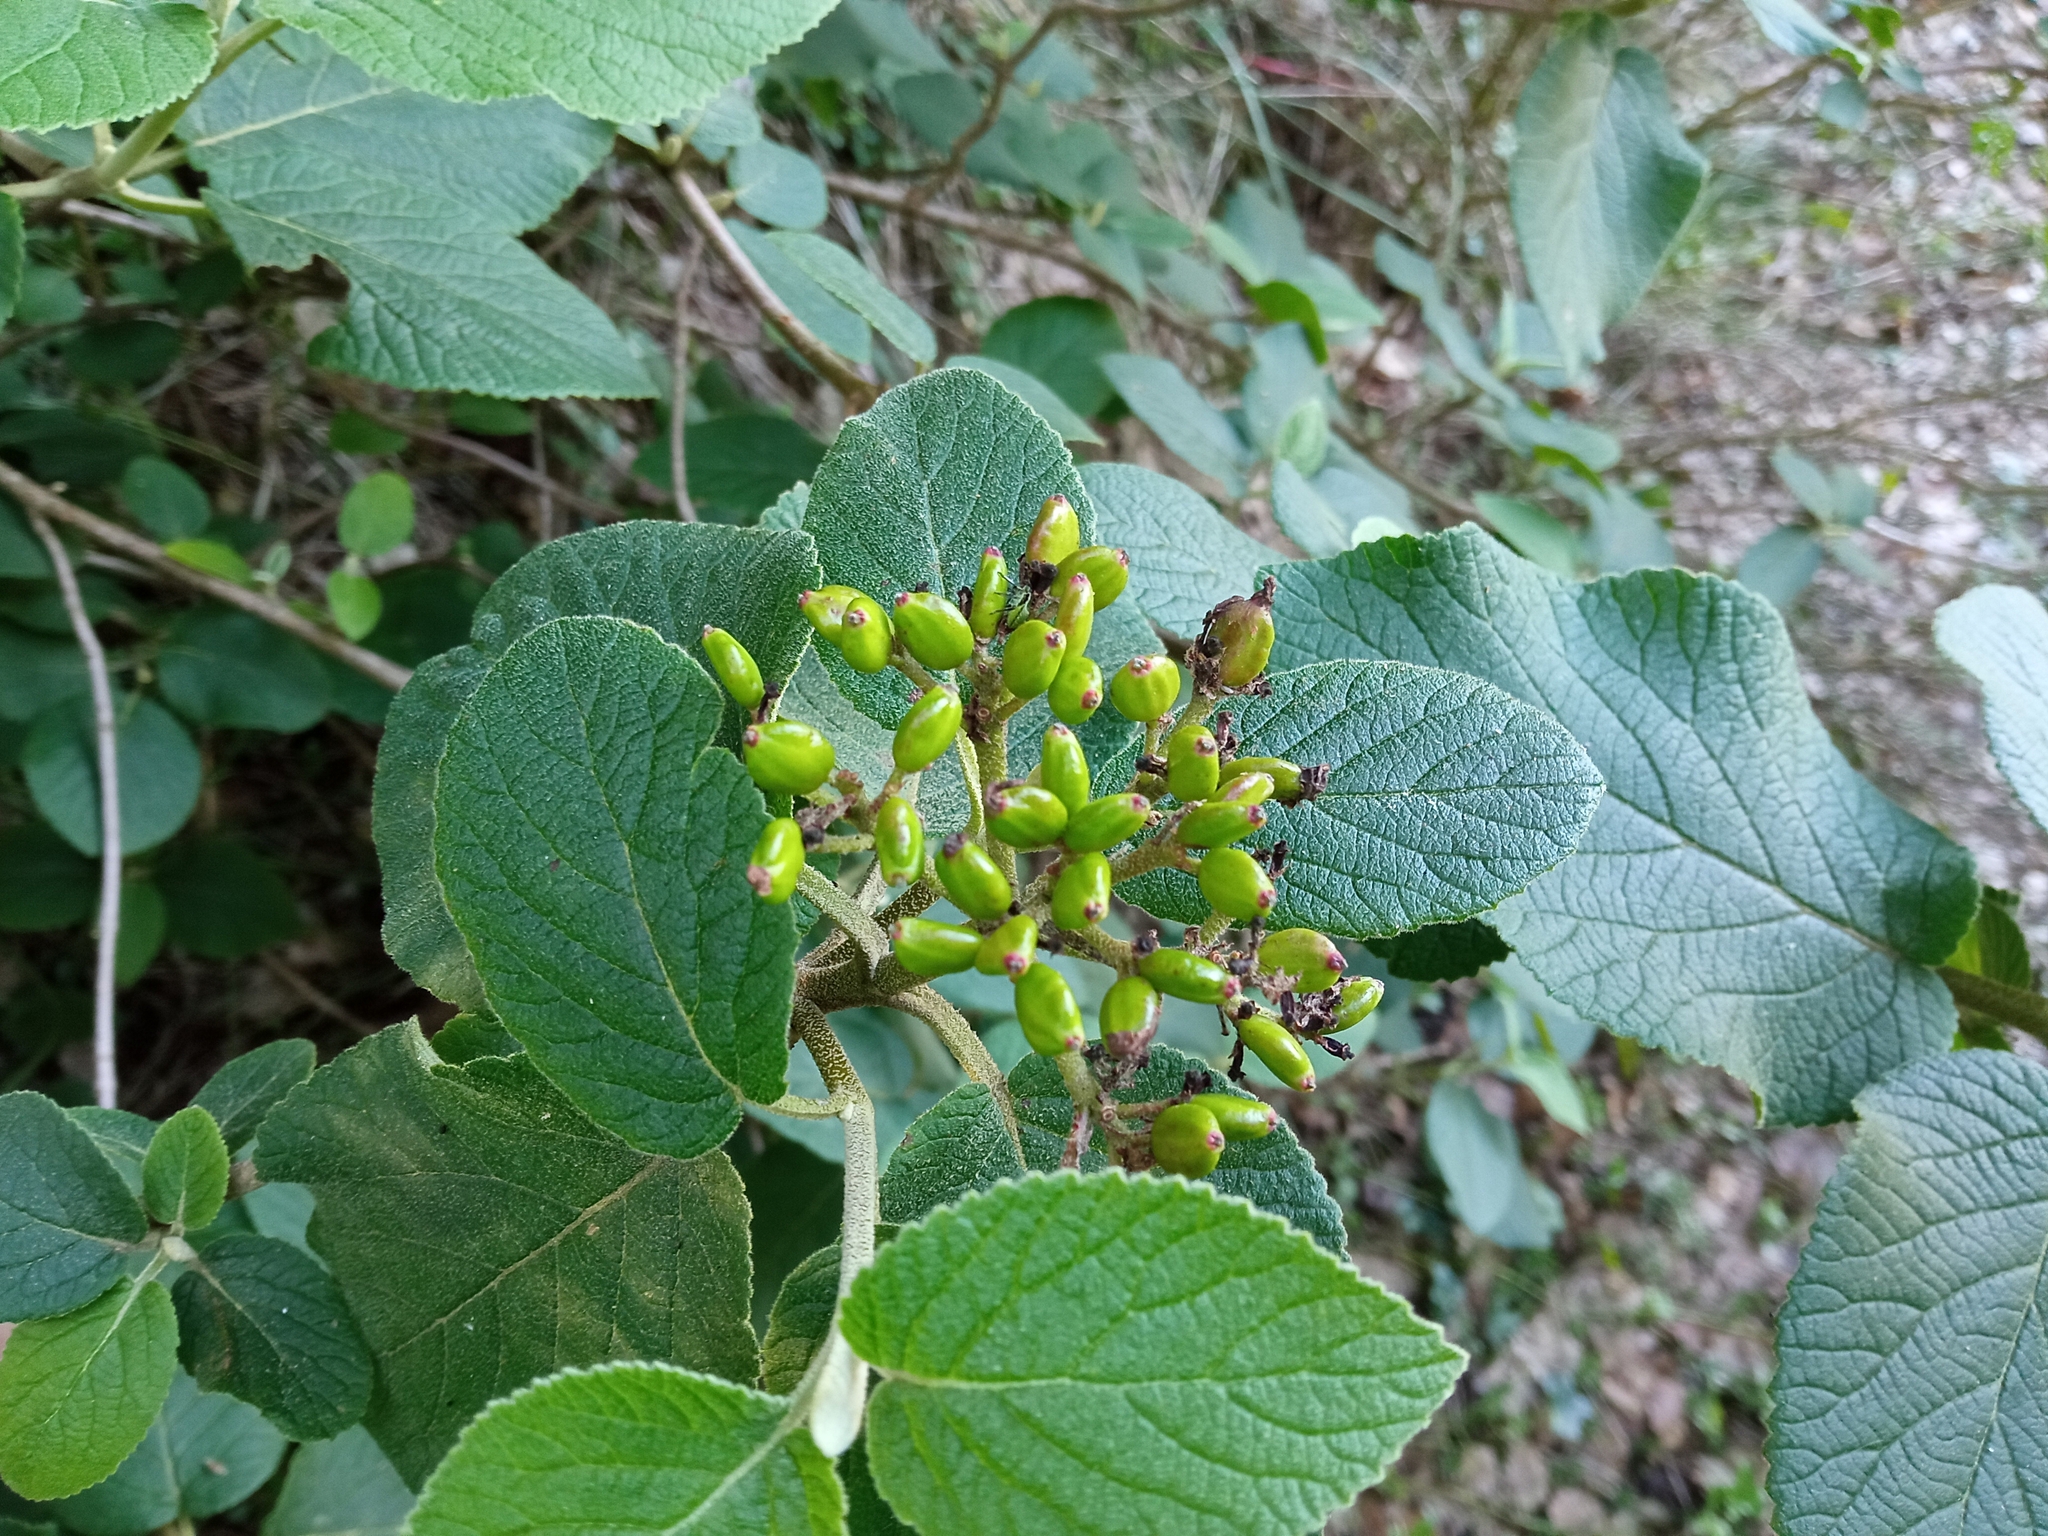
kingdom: Plantae
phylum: Tracheophyta
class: Magnoliopsida
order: Dipsacales
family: Viburnaceae
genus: Viburnum
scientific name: Viburnum lantana
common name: Wayfaring tree
